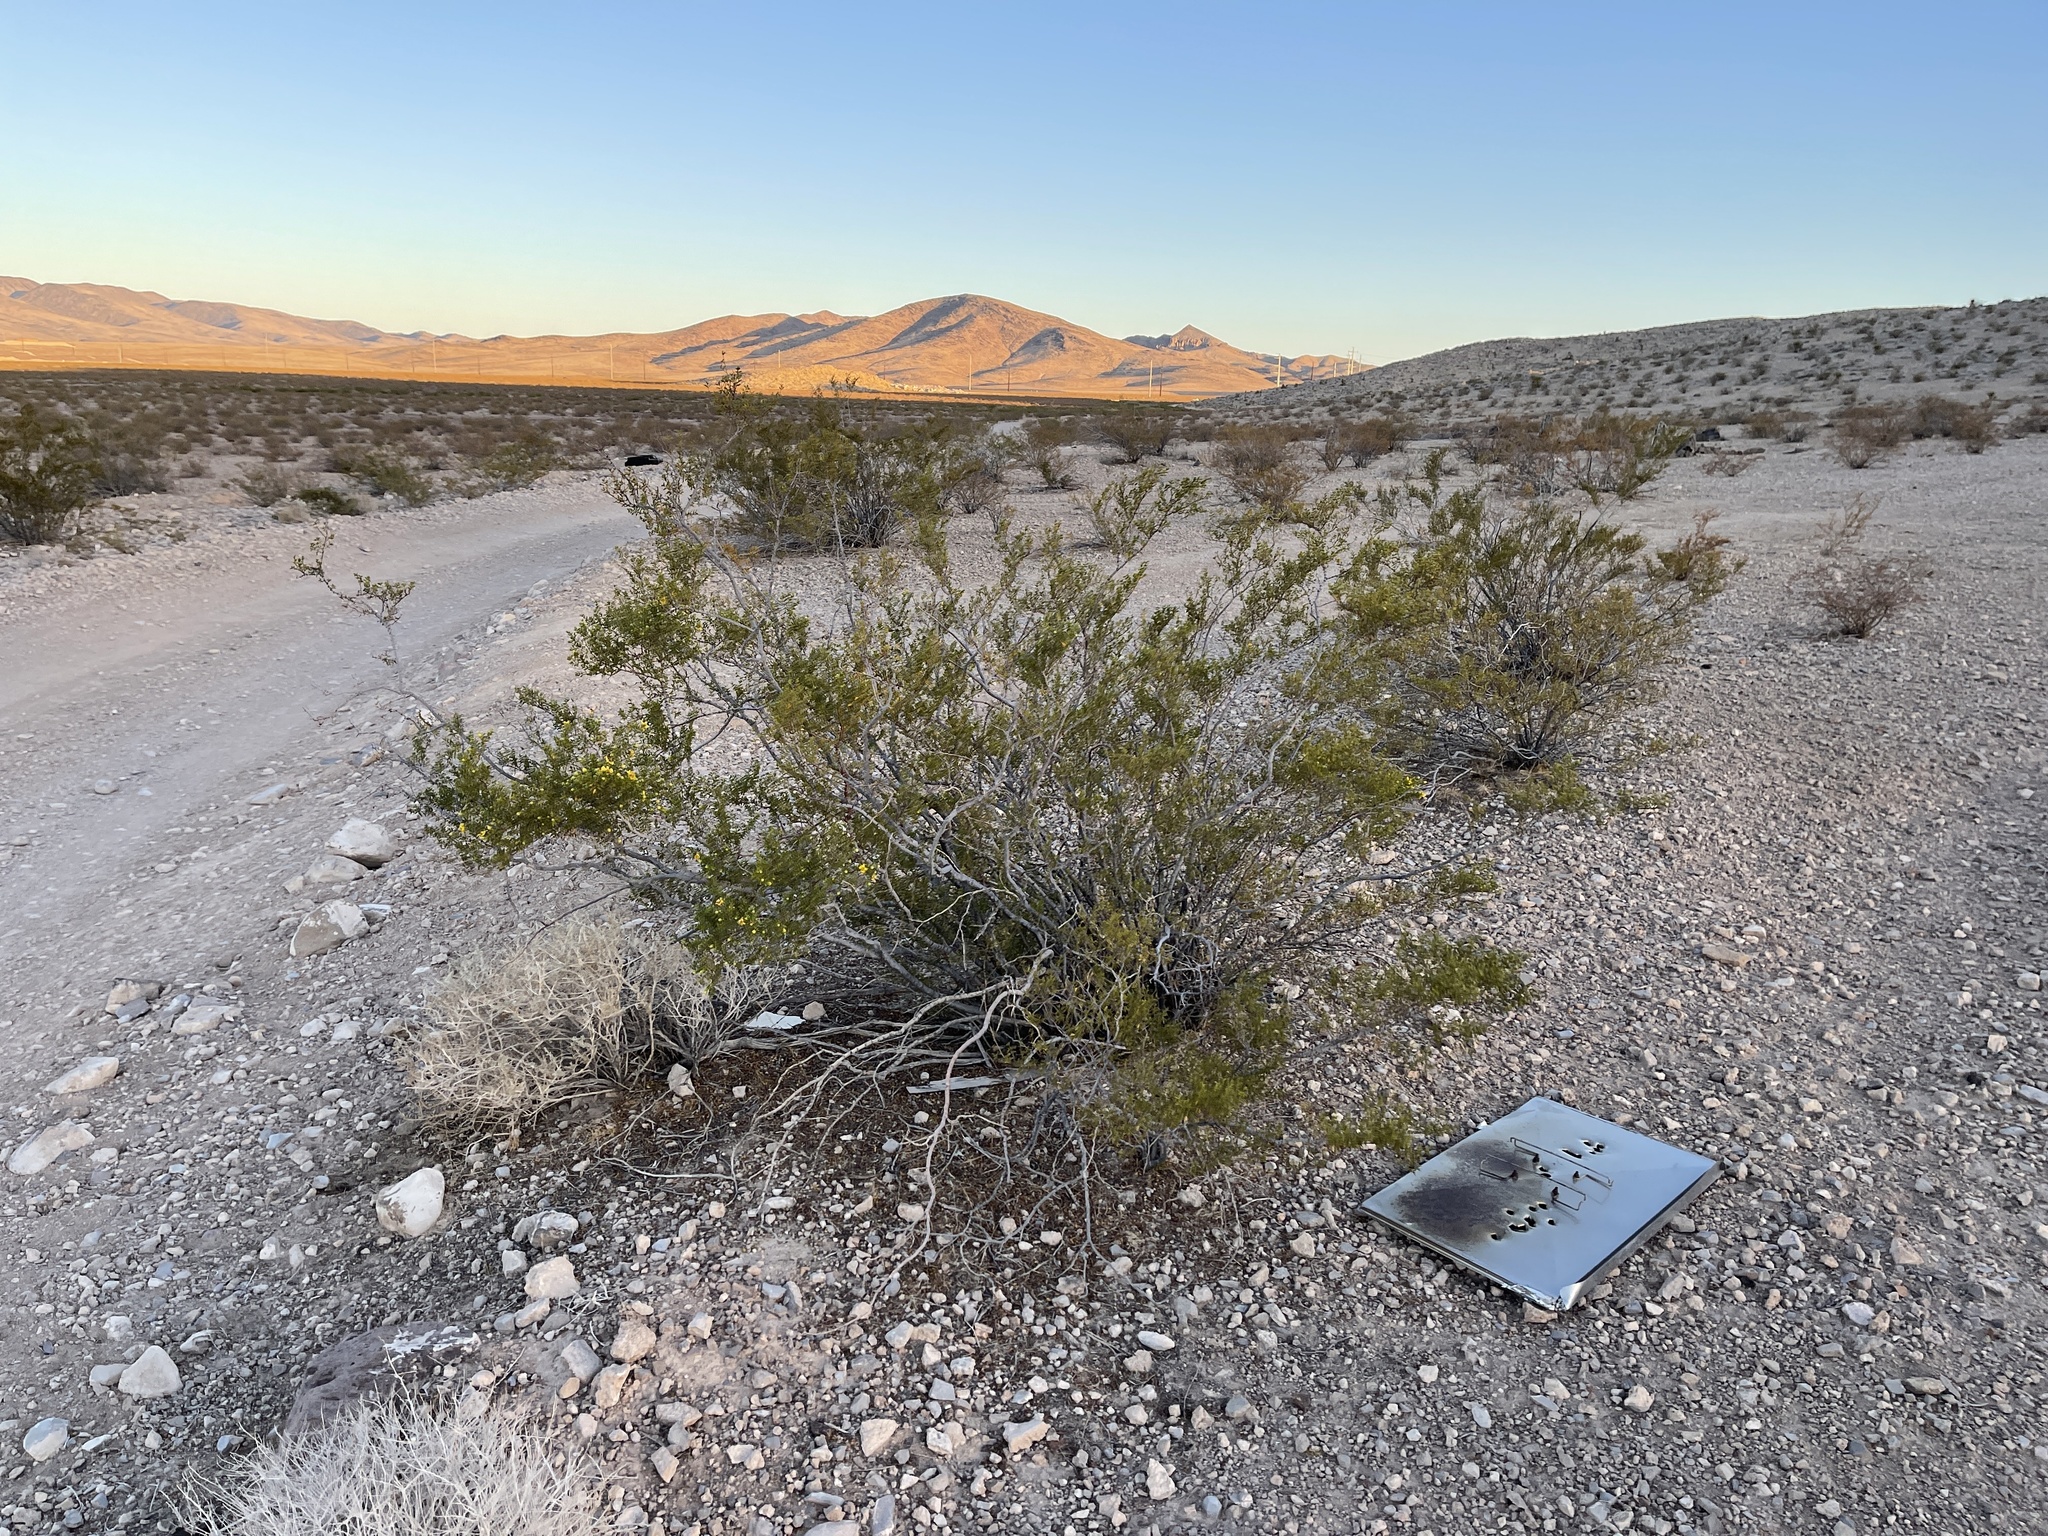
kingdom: Plantae
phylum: Tracheophyta
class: Magnoliopsida
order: Zygophyllales
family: Zygophyllaceae
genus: Larrea
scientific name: Larrea tridentata
